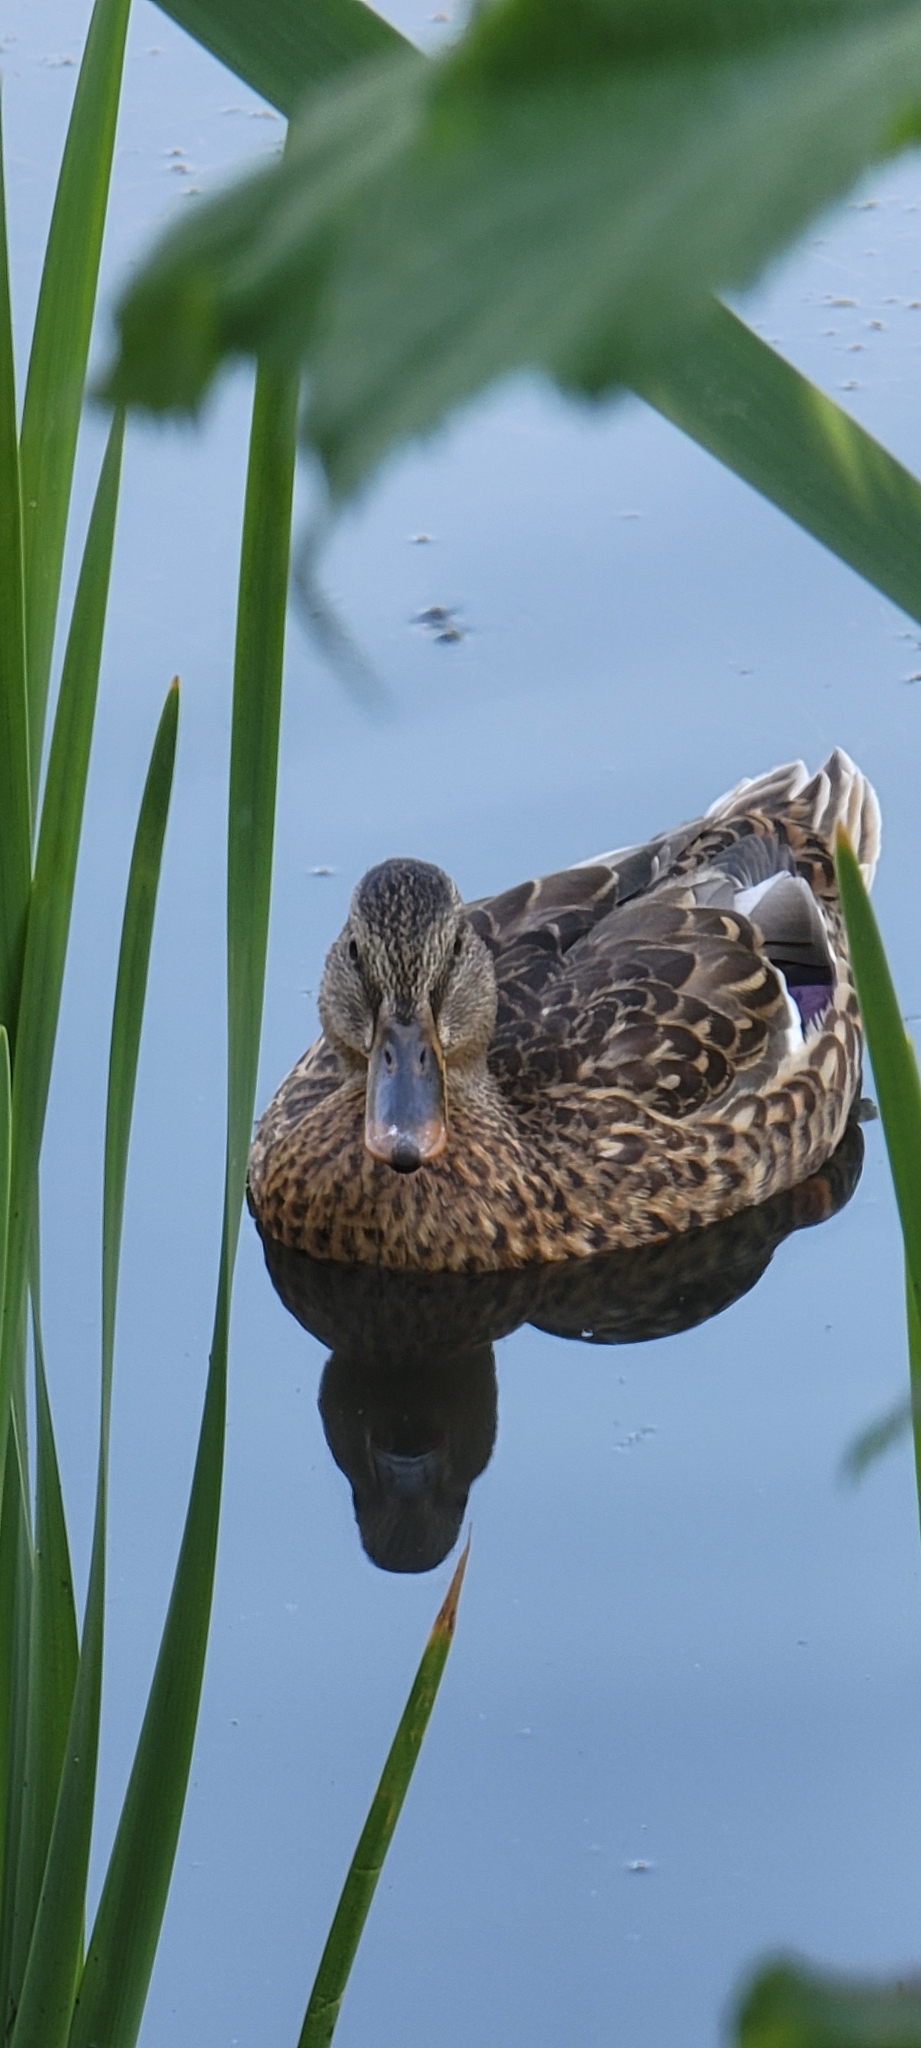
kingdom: Animalia
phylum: Chordata
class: Aves
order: Anseriformes
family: Anatidae
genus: Anas
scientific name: Anas platyrhynchos
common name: Mallard
